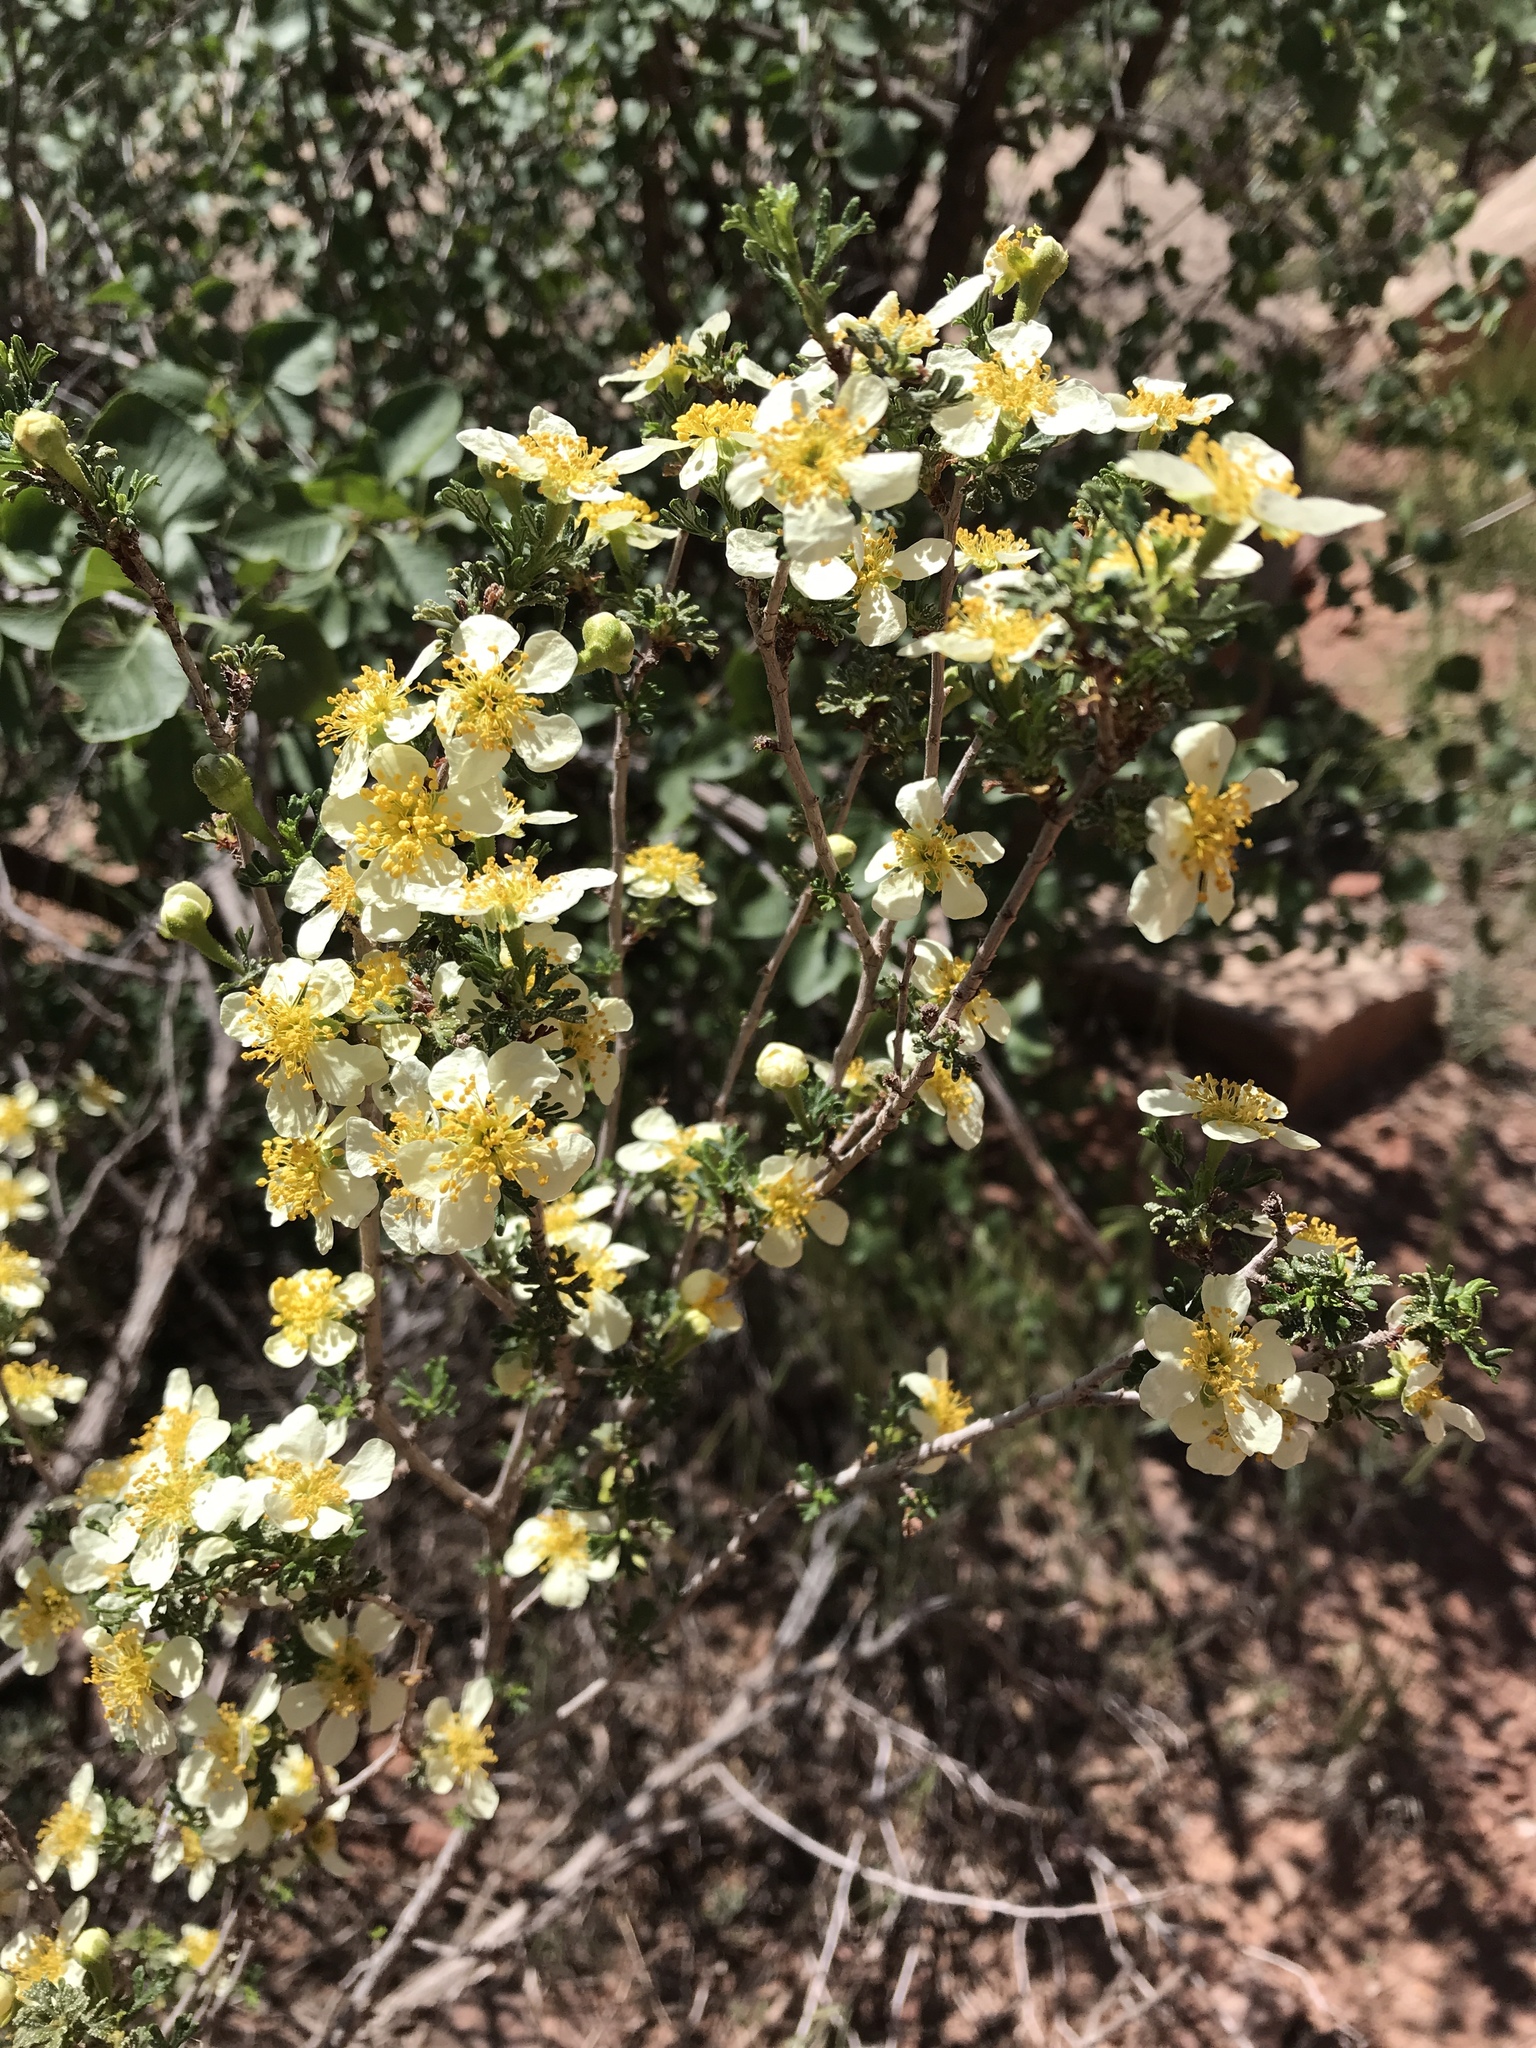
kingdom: Plantae
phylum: Tracheophyta
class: Magnoliopsida
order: Rosales
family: Rosaceae
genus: Purshia
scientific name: Purshia stansburiana
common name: Stansbury's cliffrose
